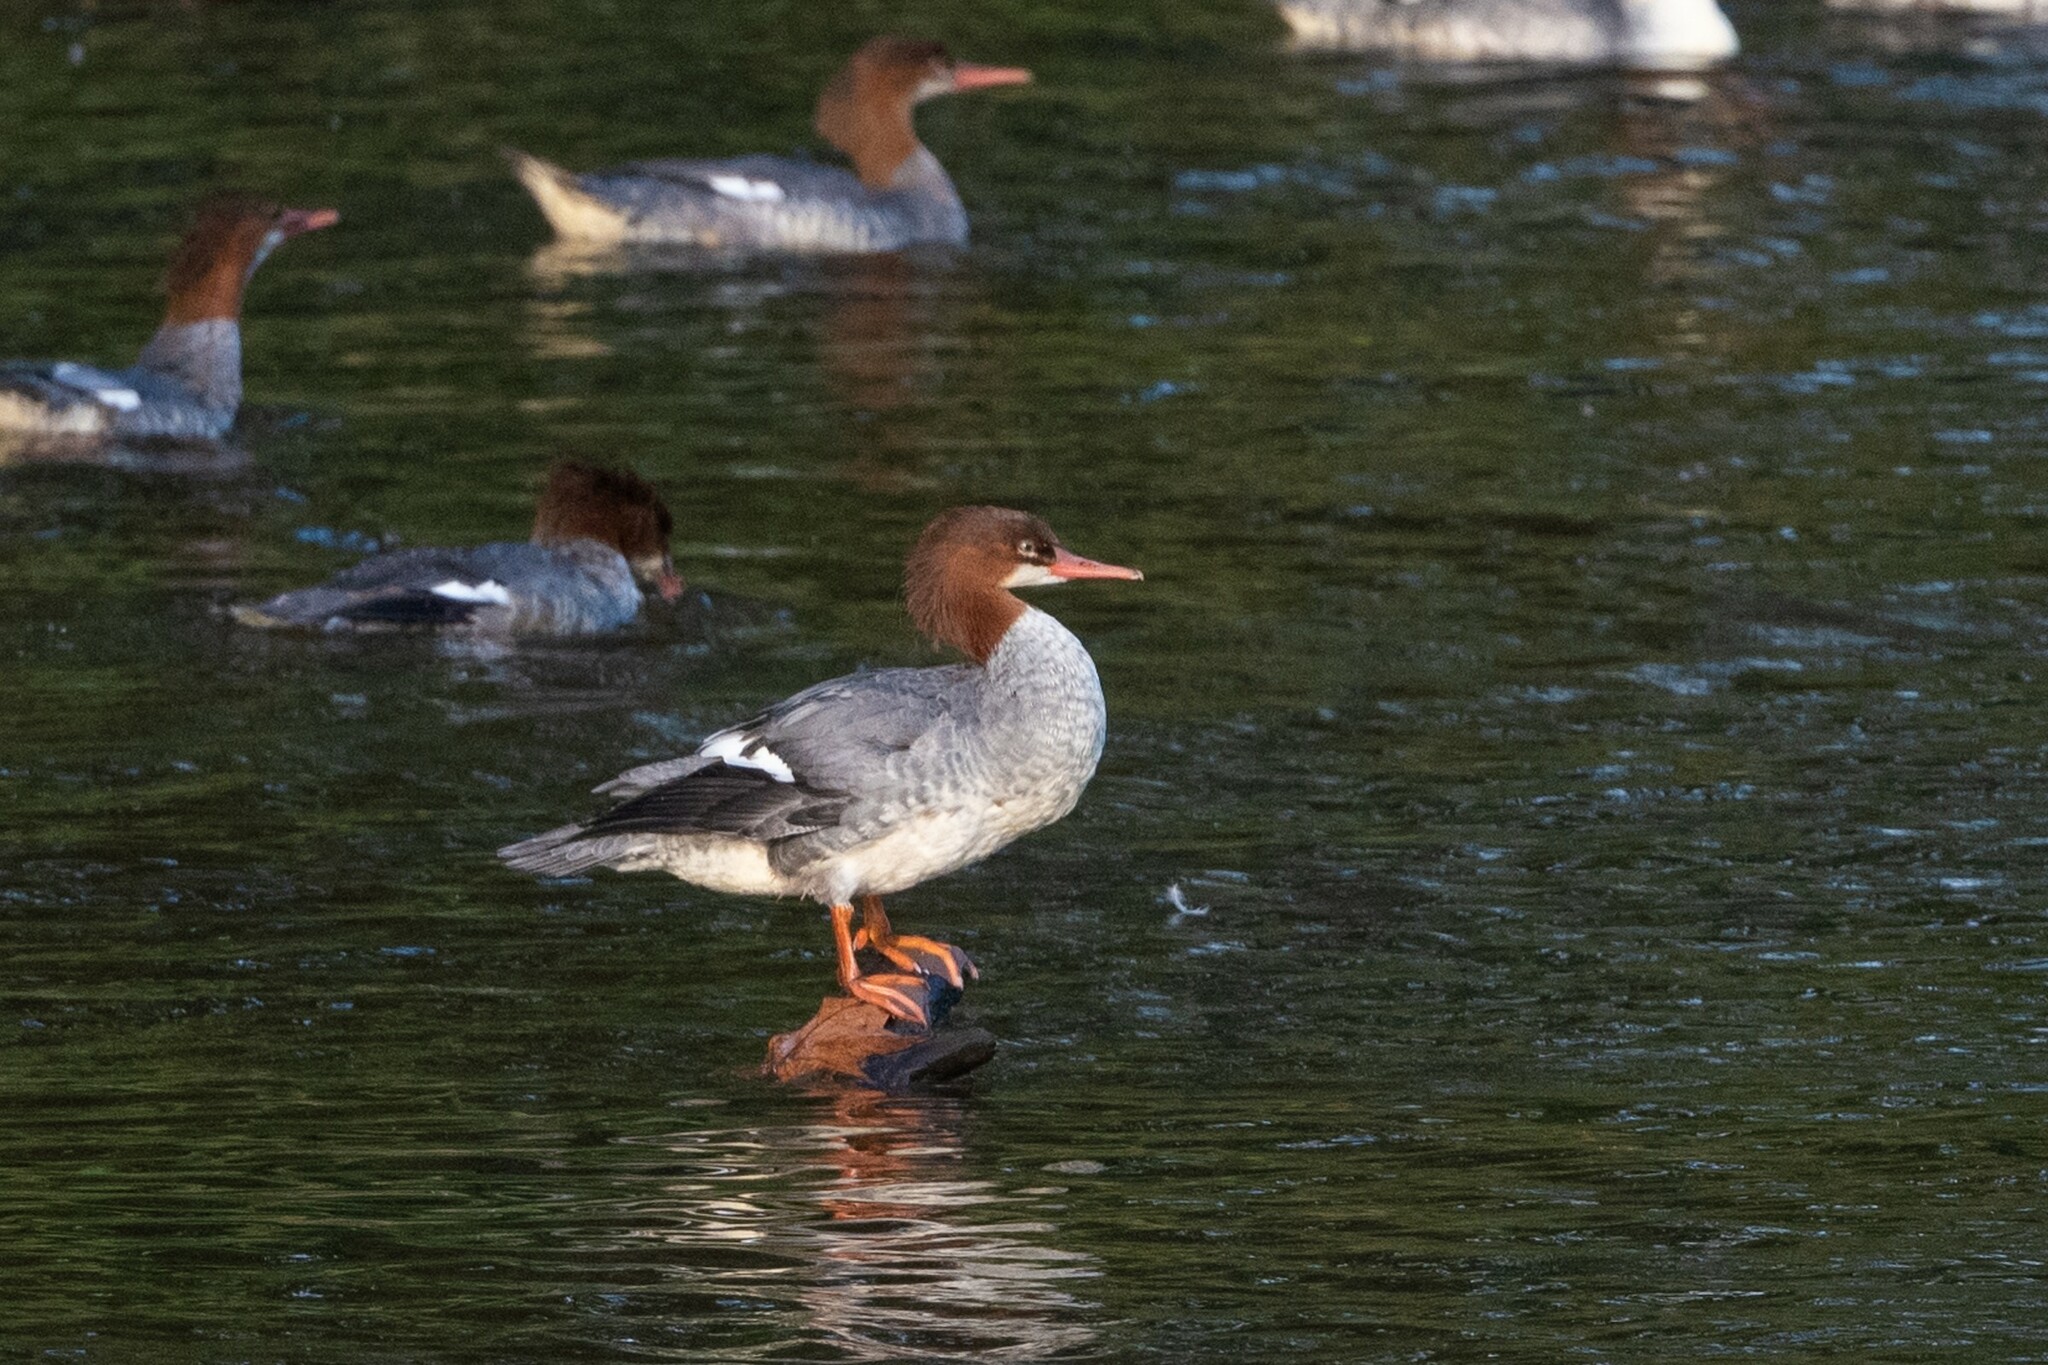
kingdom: Animalia
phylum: Chordata
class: Aves
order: Anseriformes
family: Anatidae
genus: Mergus
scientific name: Mergus merganser
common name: Common merganser
